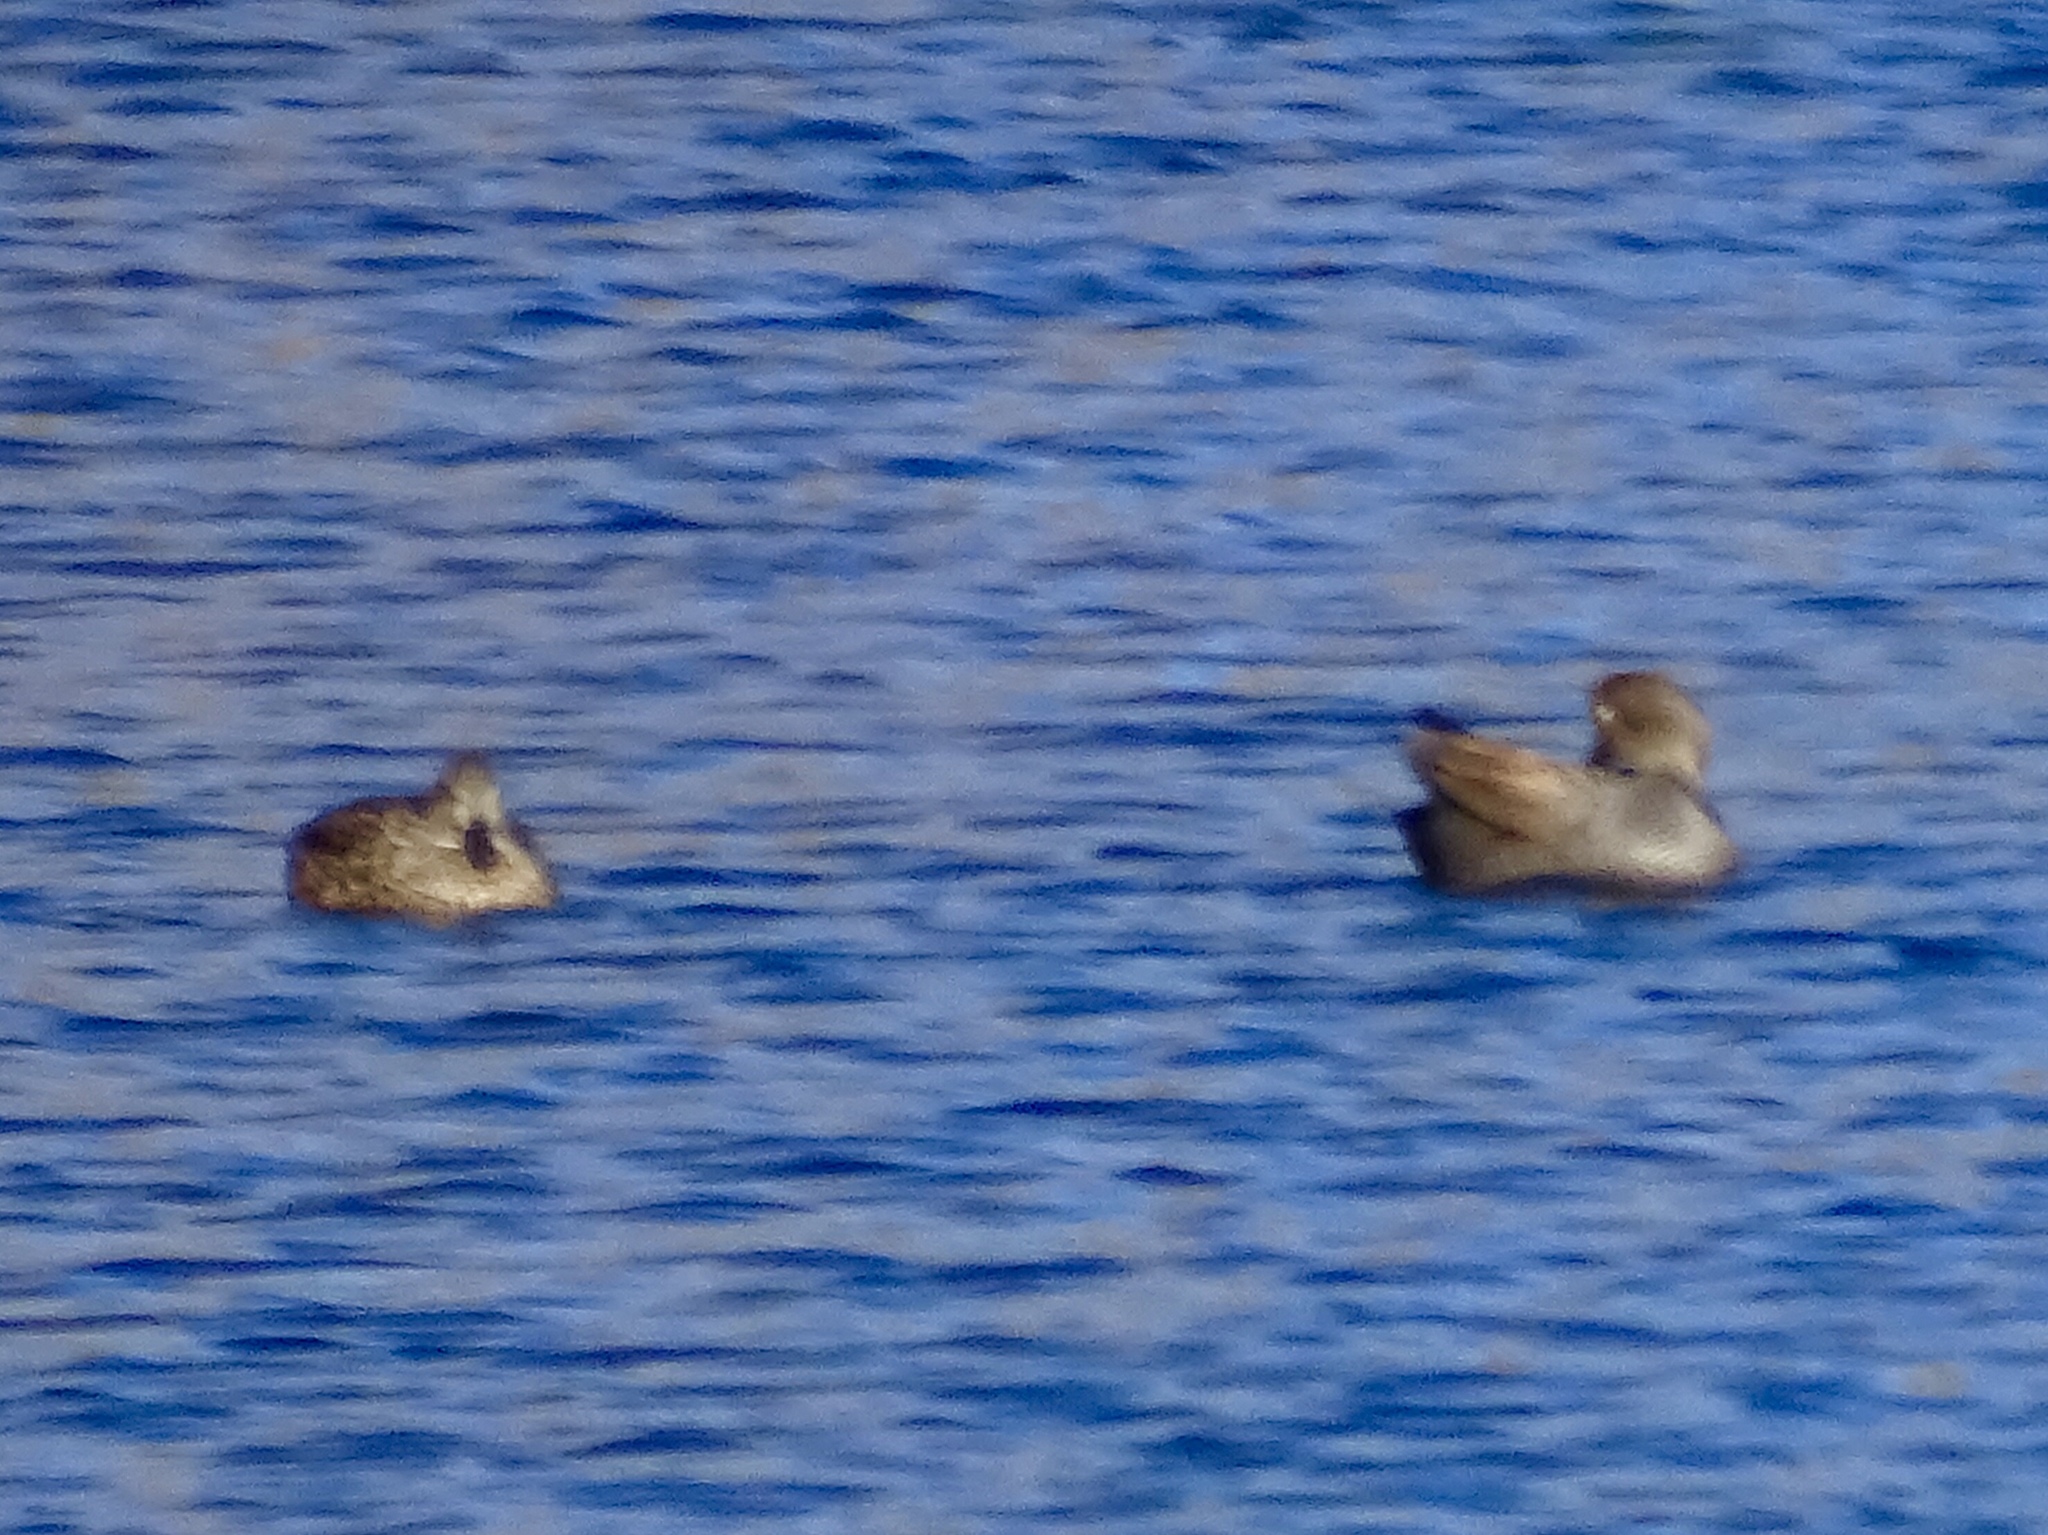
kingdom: Animalia
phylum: Chordata
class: Aves
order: Anseriformes
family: Anatidae
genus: Mareca
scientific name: Mareca strepera
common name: Gadwall
